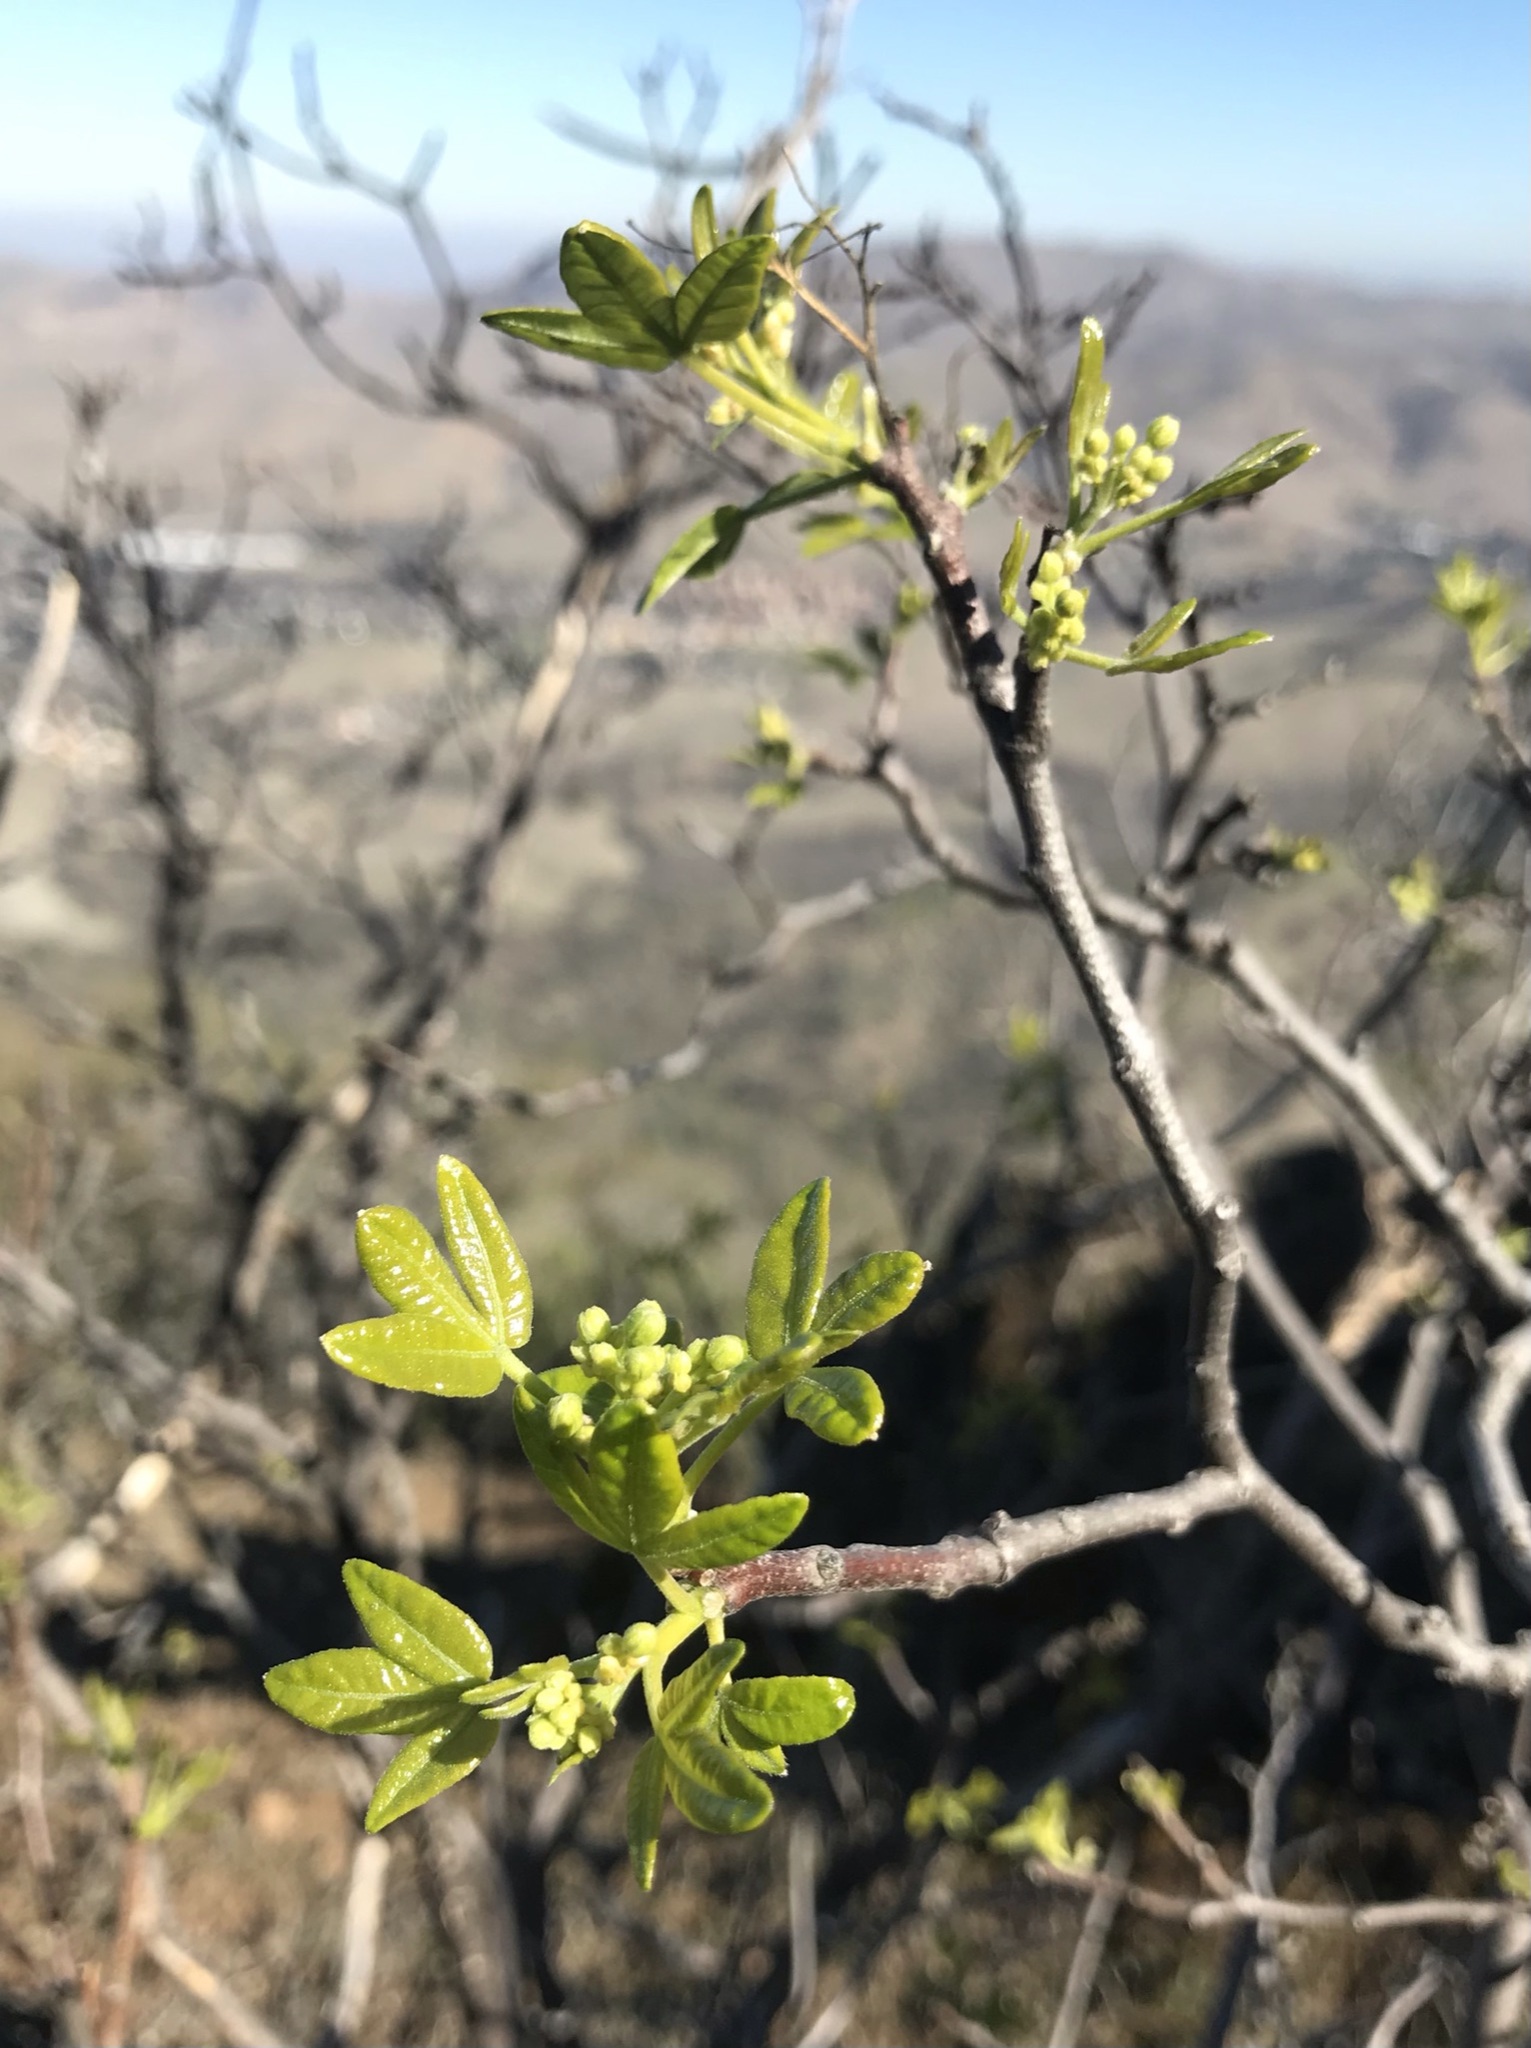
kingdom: Plantae
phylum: Tracheophyta
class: Magnoliopsida
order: Sapindales
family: Rutaceae
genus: Ptelea
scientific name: Ptelea crenulata
